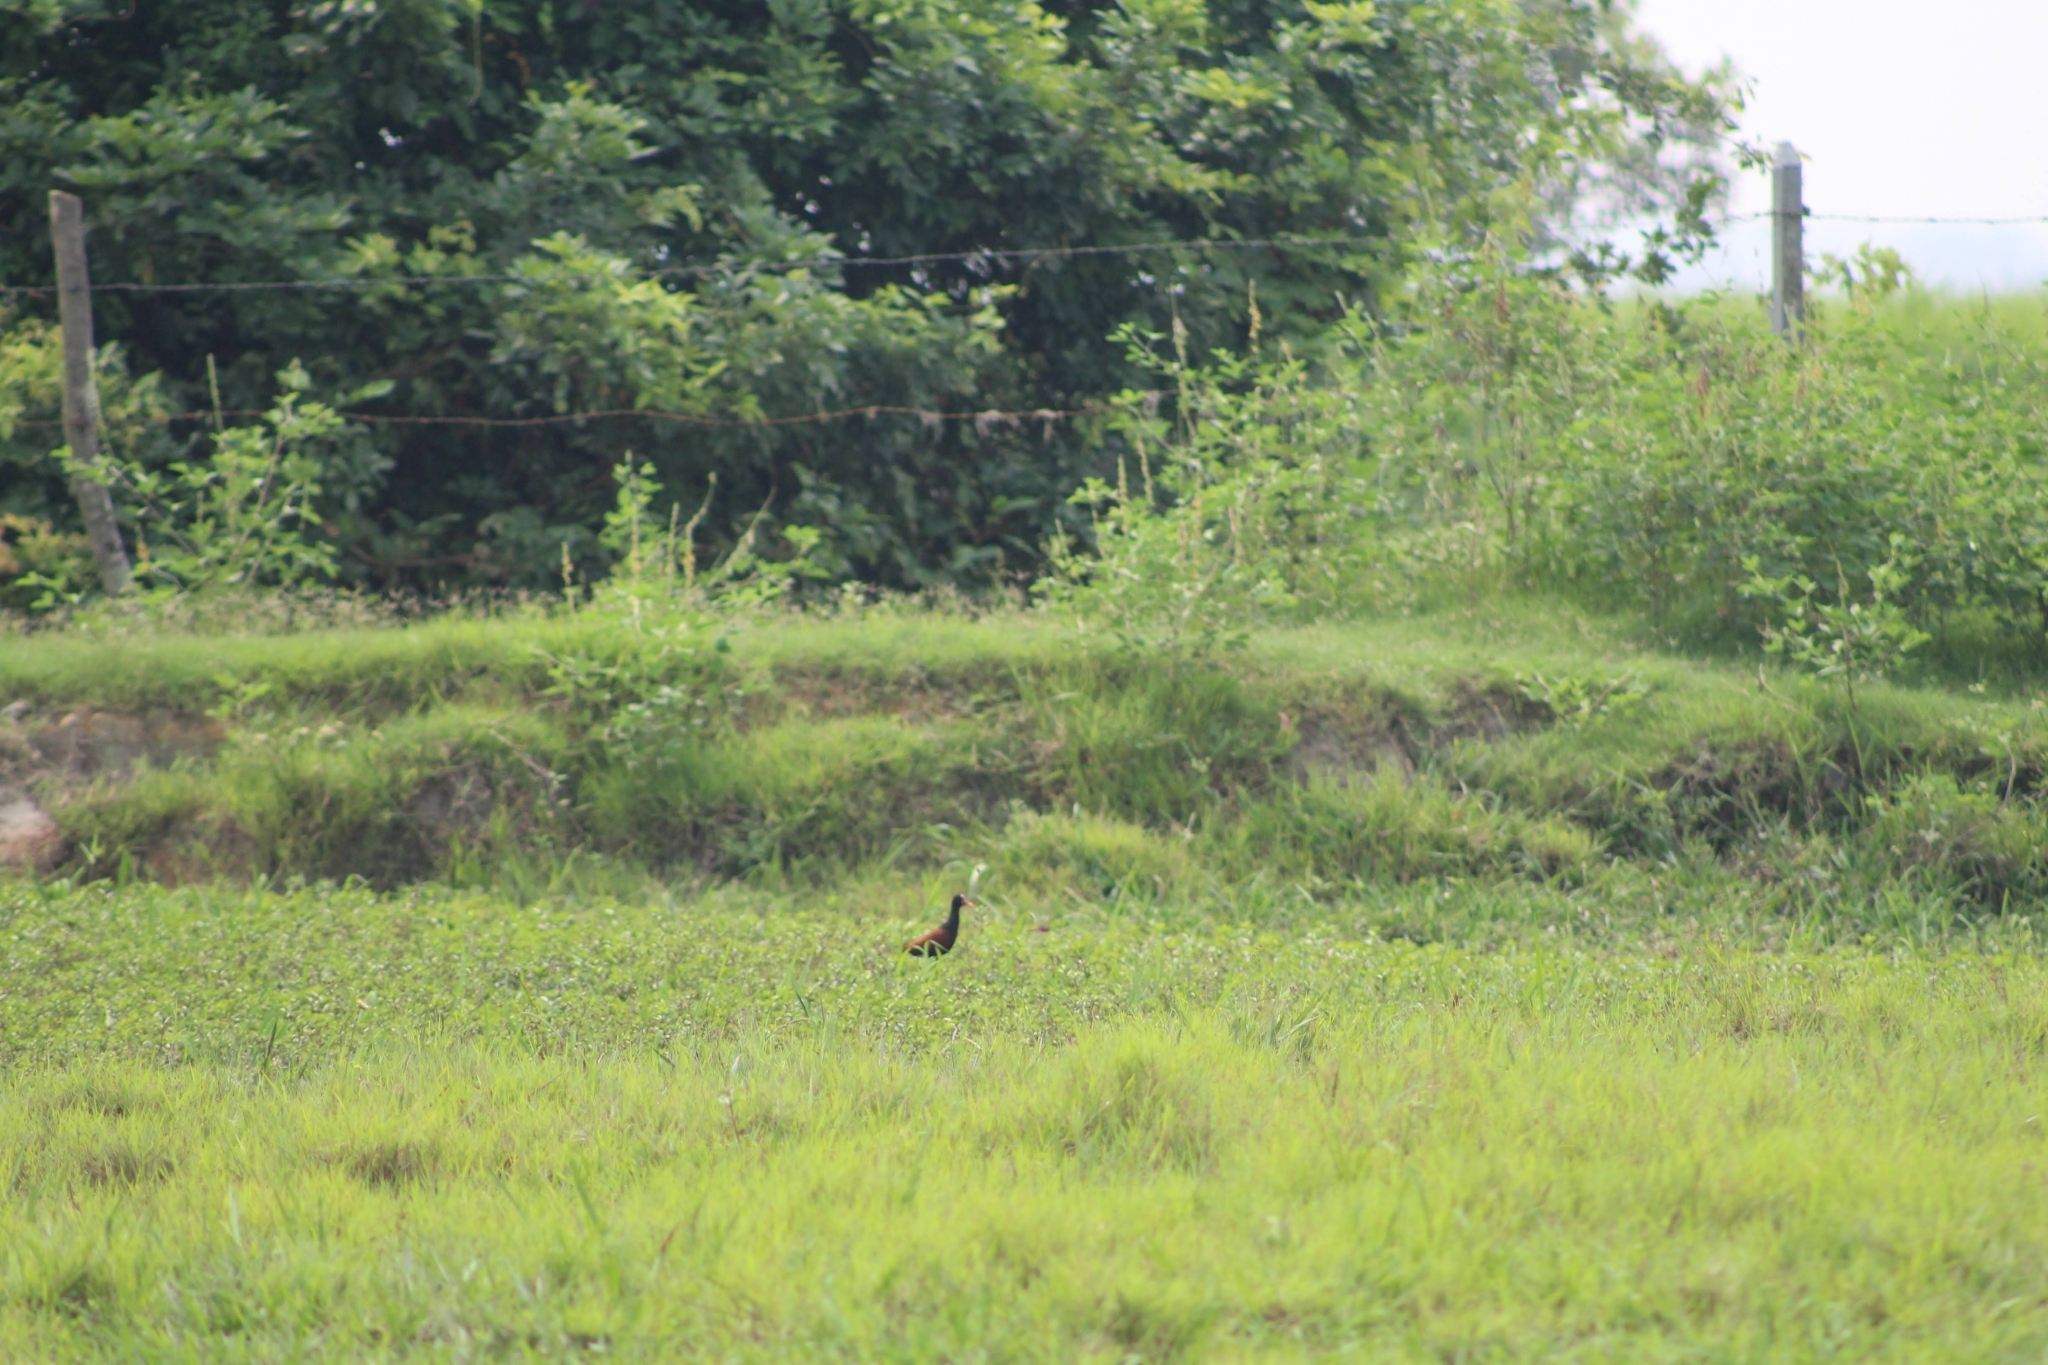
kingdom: Animalia
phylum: Chordata
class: Aves
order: Charadriiformes
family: Jacanidae
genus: Jacana
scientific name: Jacana jacana
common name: Wattled jacana
